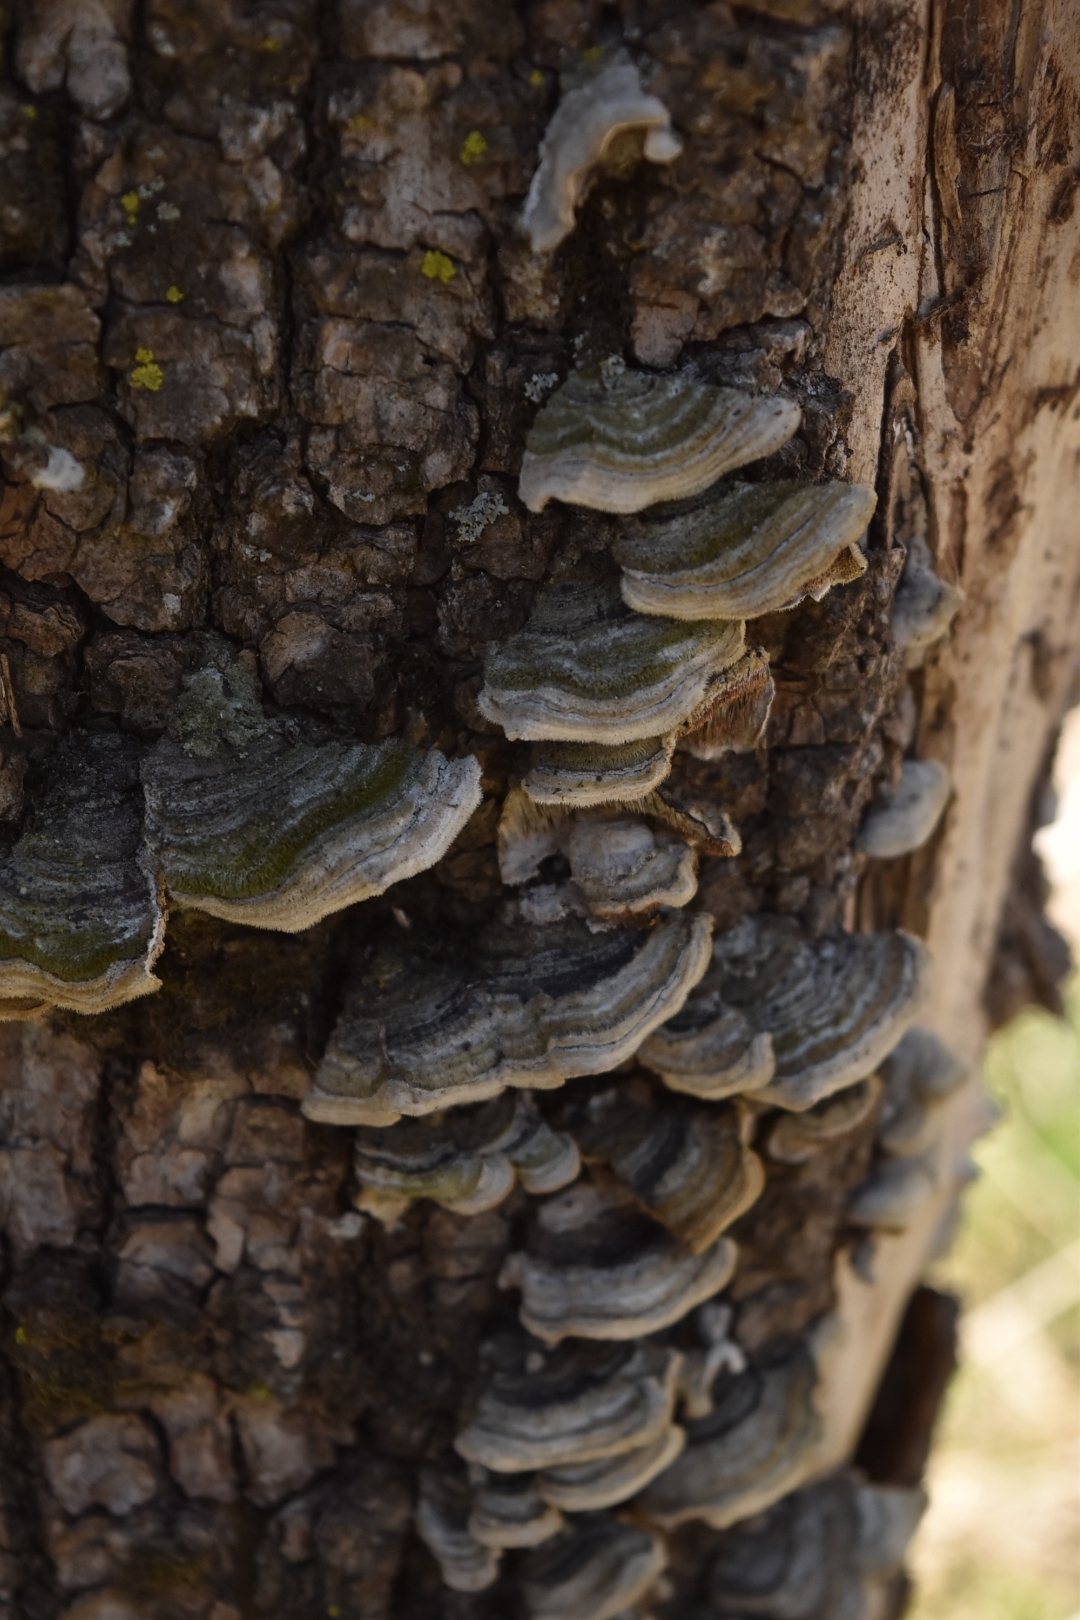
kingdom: Fungi
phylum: Basidiomycota
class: Agaricomycetes
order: Polyporales
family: Polyporaceae
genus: Trametes
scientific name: Trametes versicolor
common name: Turkeytail
